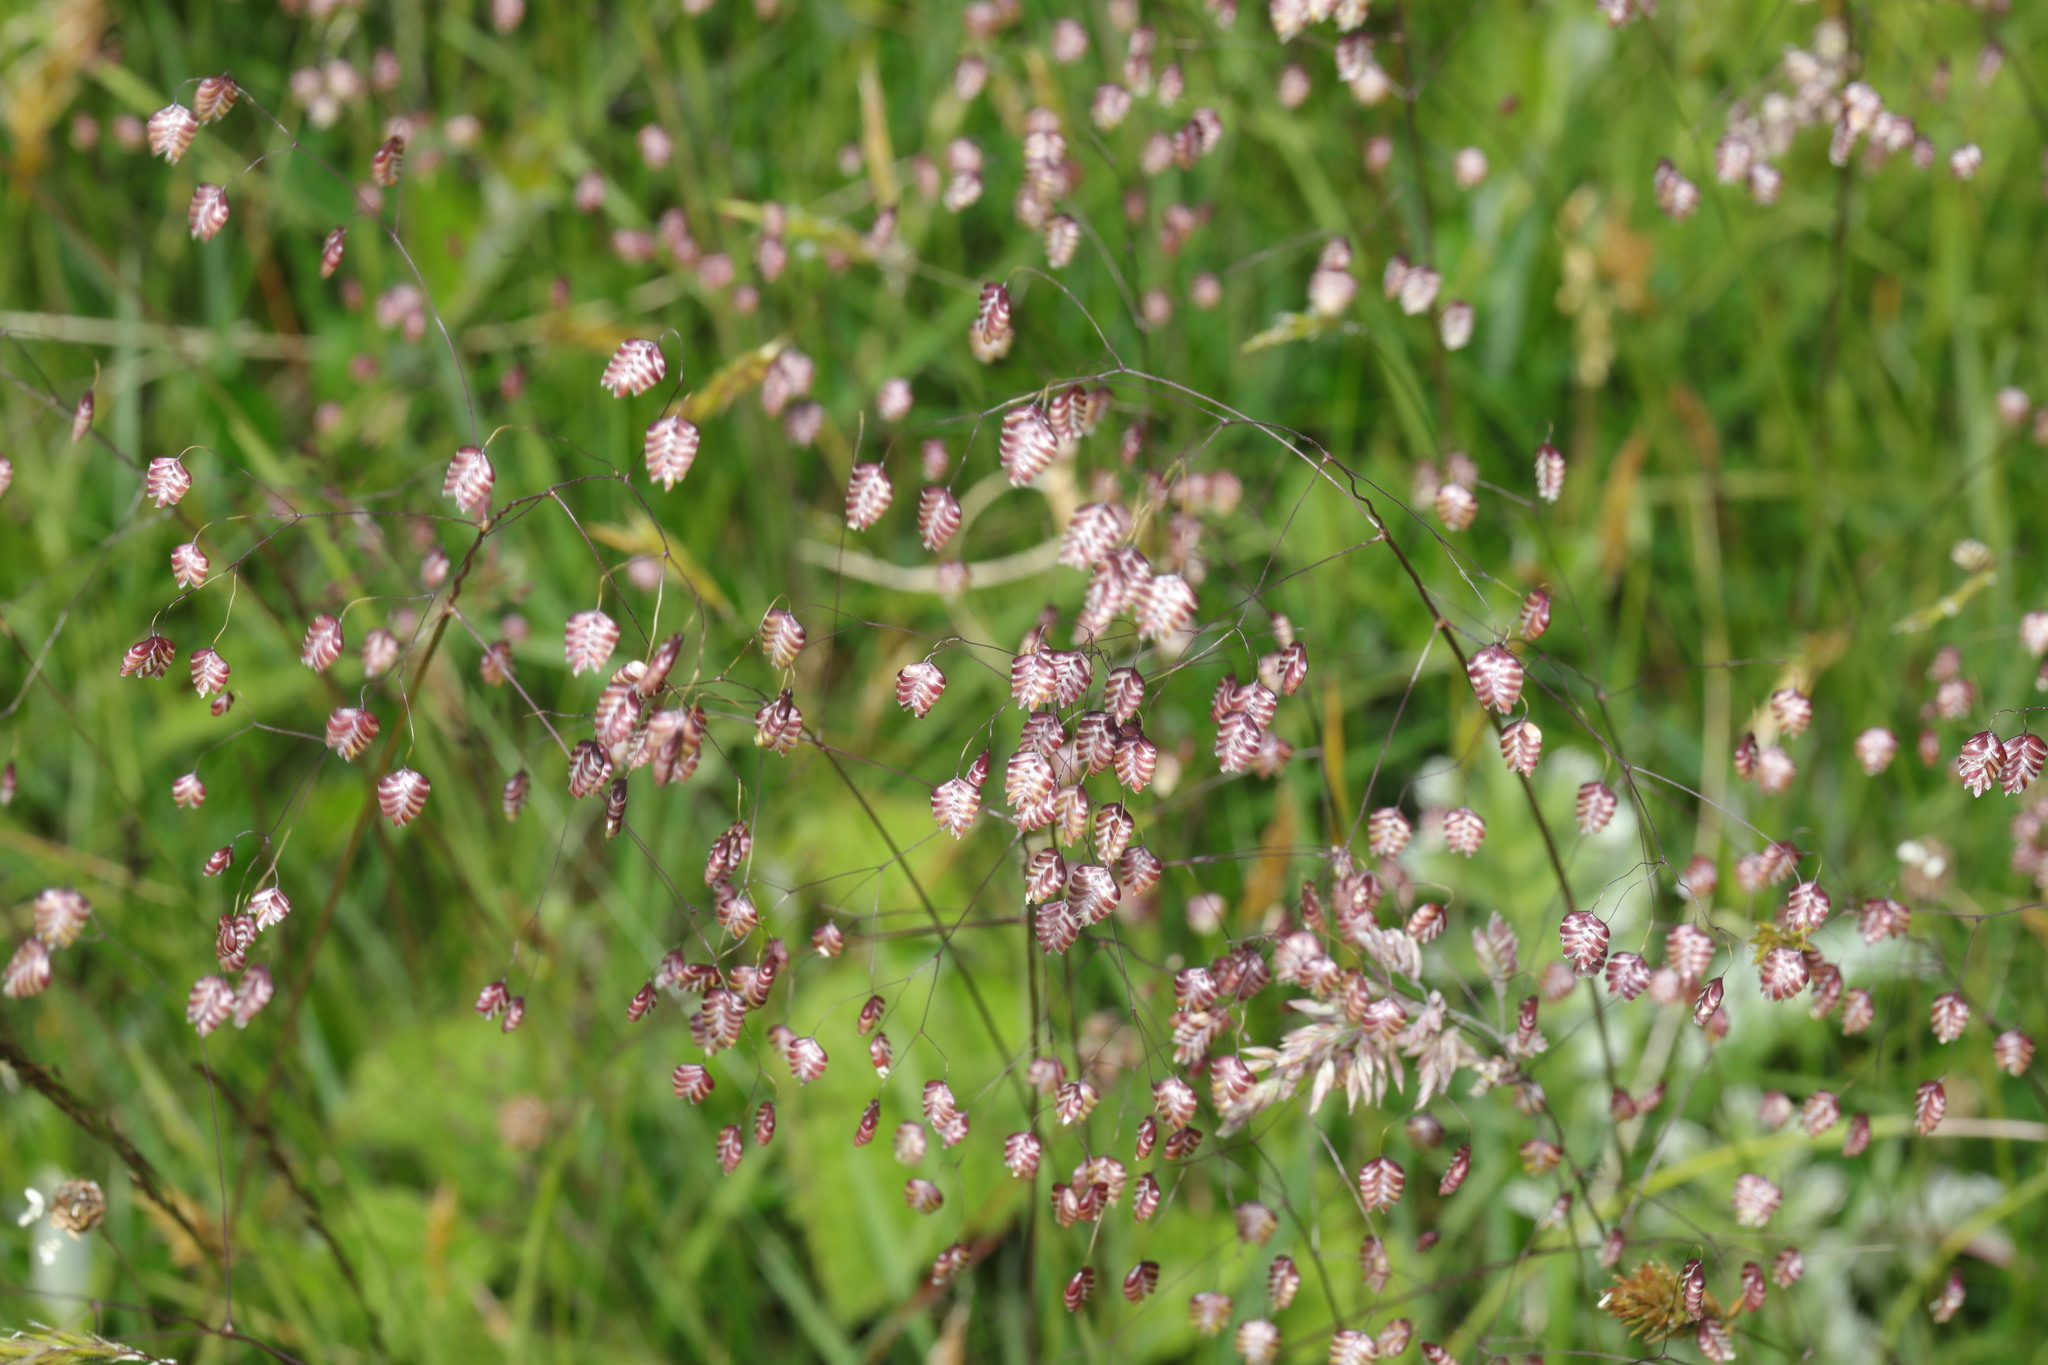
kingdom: Plantae
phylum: Tracheophyta
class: Liliopsida
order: Poales
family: Poaceae
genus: Briza
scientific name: Briza media
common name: Quaking grass
